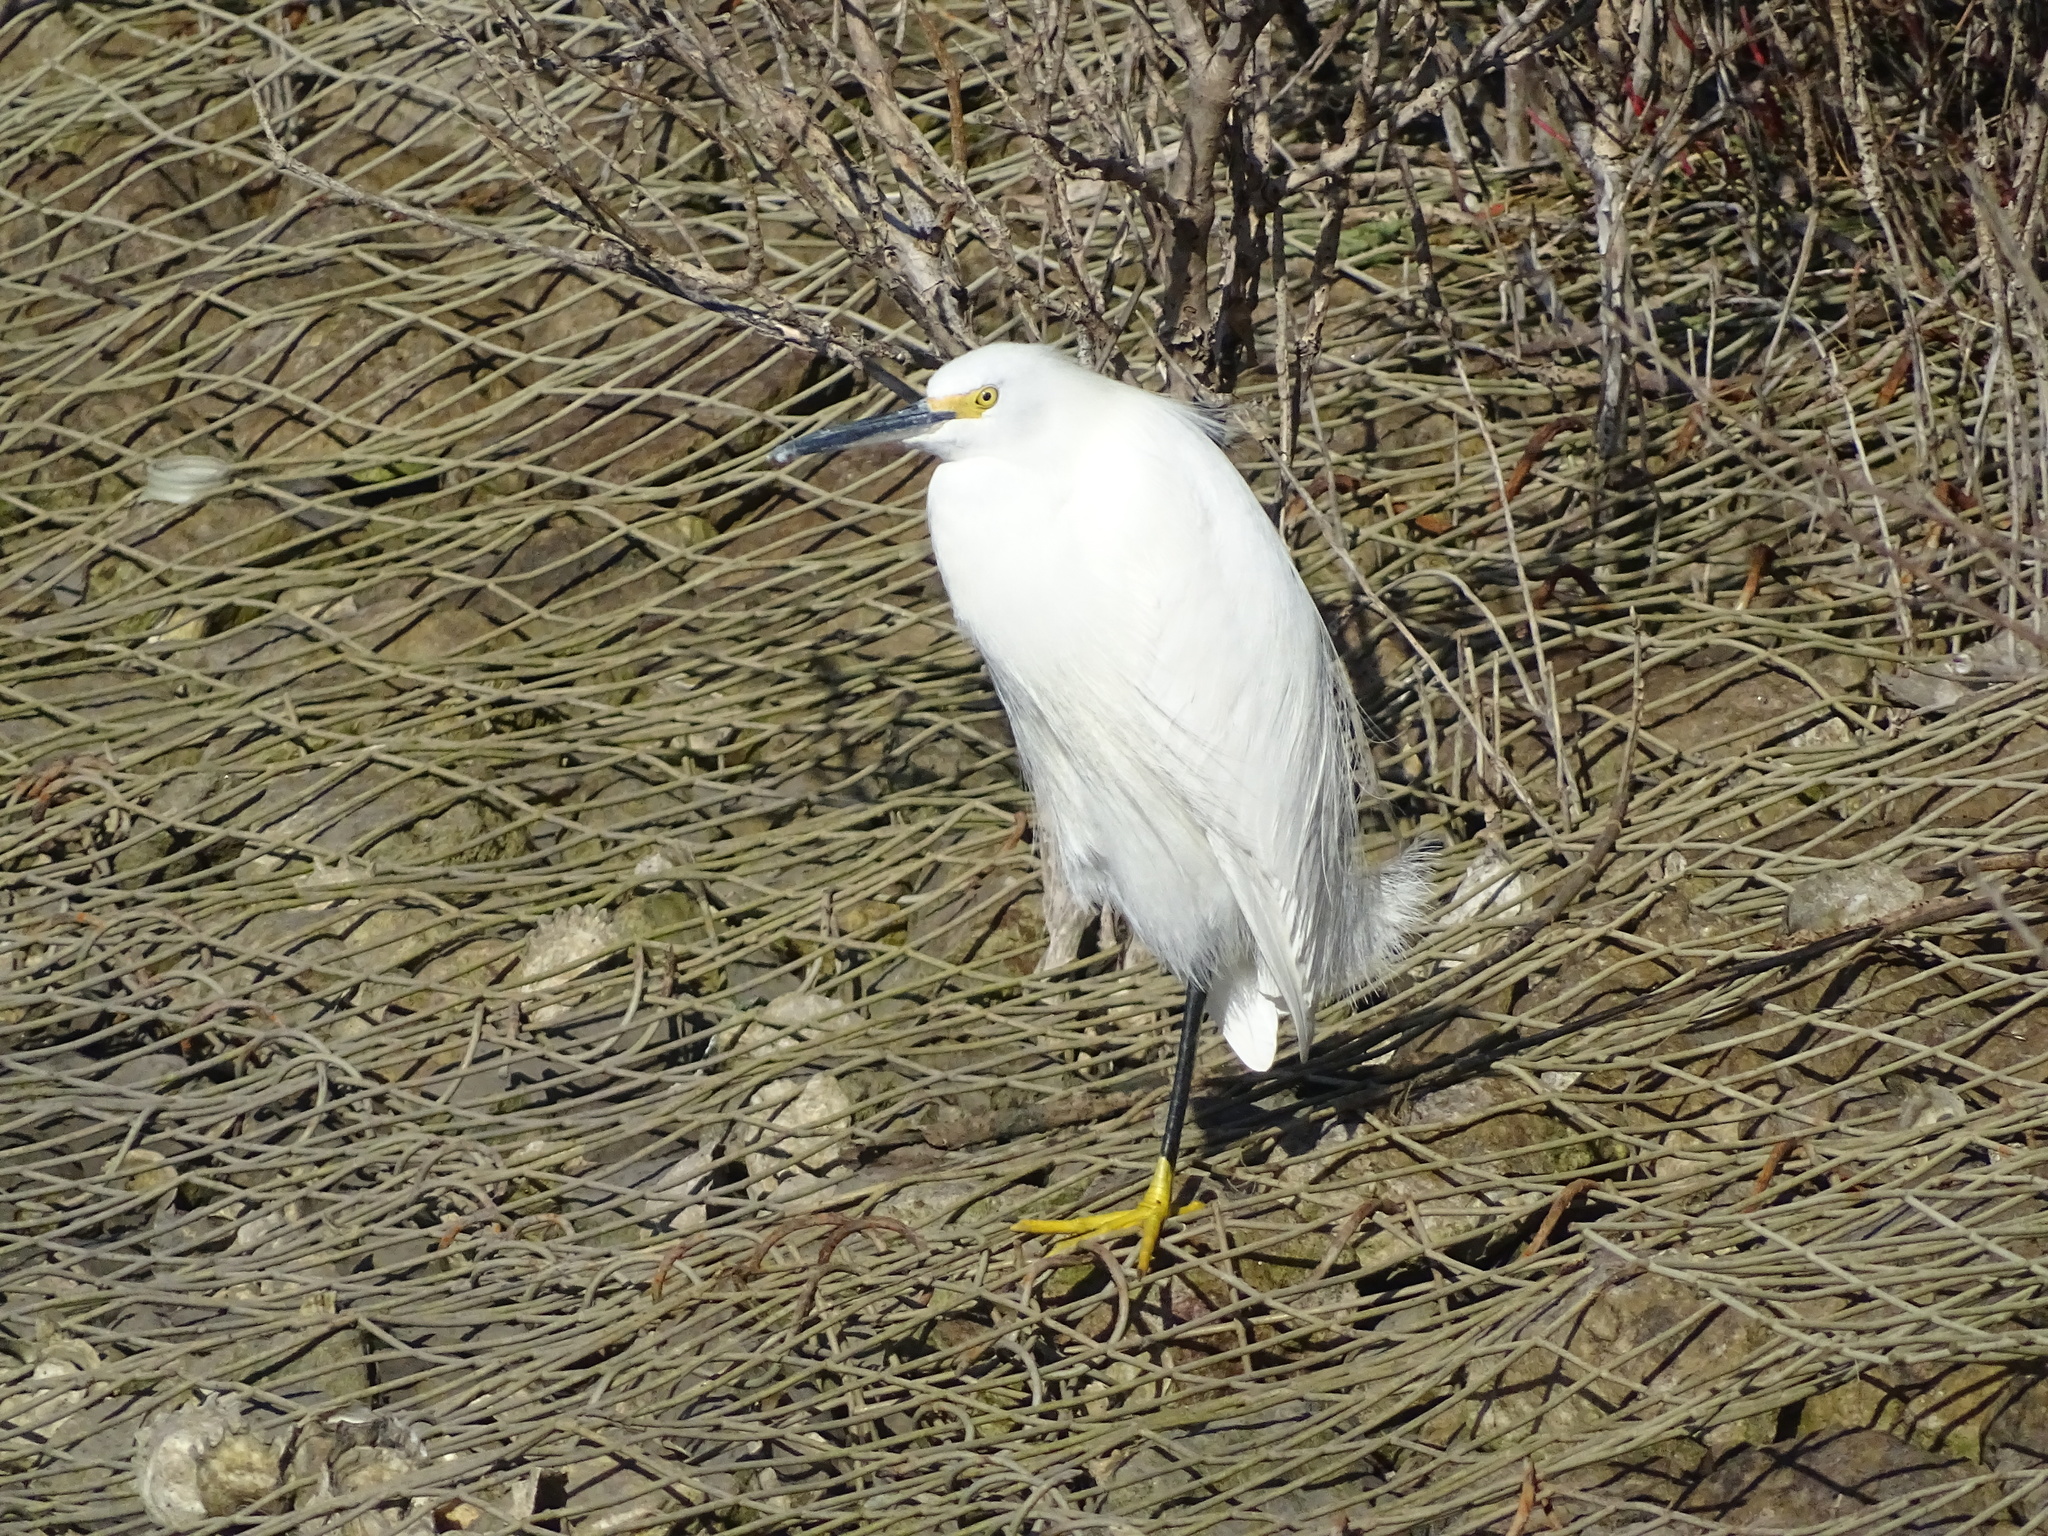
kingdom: Animalia
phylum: Chordata
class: Aves
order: Pelecaniformes
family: Ardeidae
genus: Egretta
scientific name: Egretta thula
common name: Snowy egret
